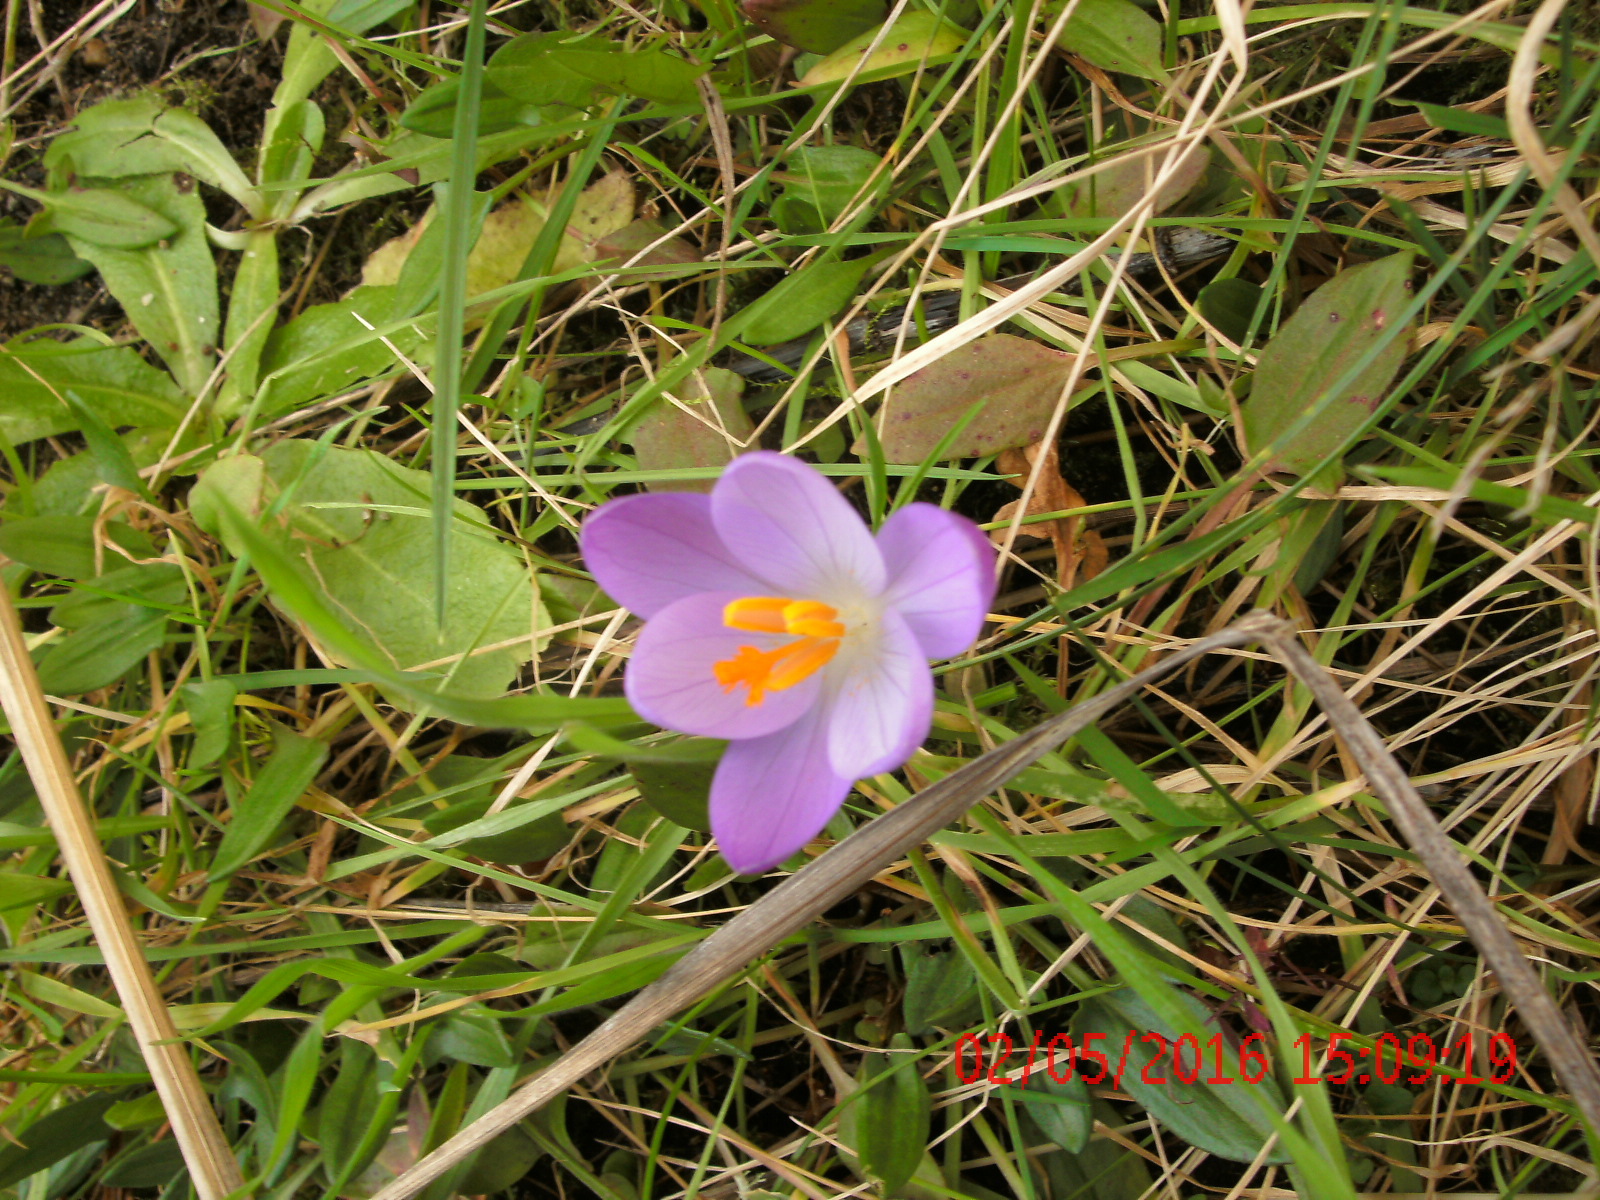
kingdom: Plantae
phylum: Tracheophyta
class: Liliopsida
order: Asparagales
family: Iridaceae
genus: Crocus
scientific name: Crocus tommasinianus
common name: Early crocus
